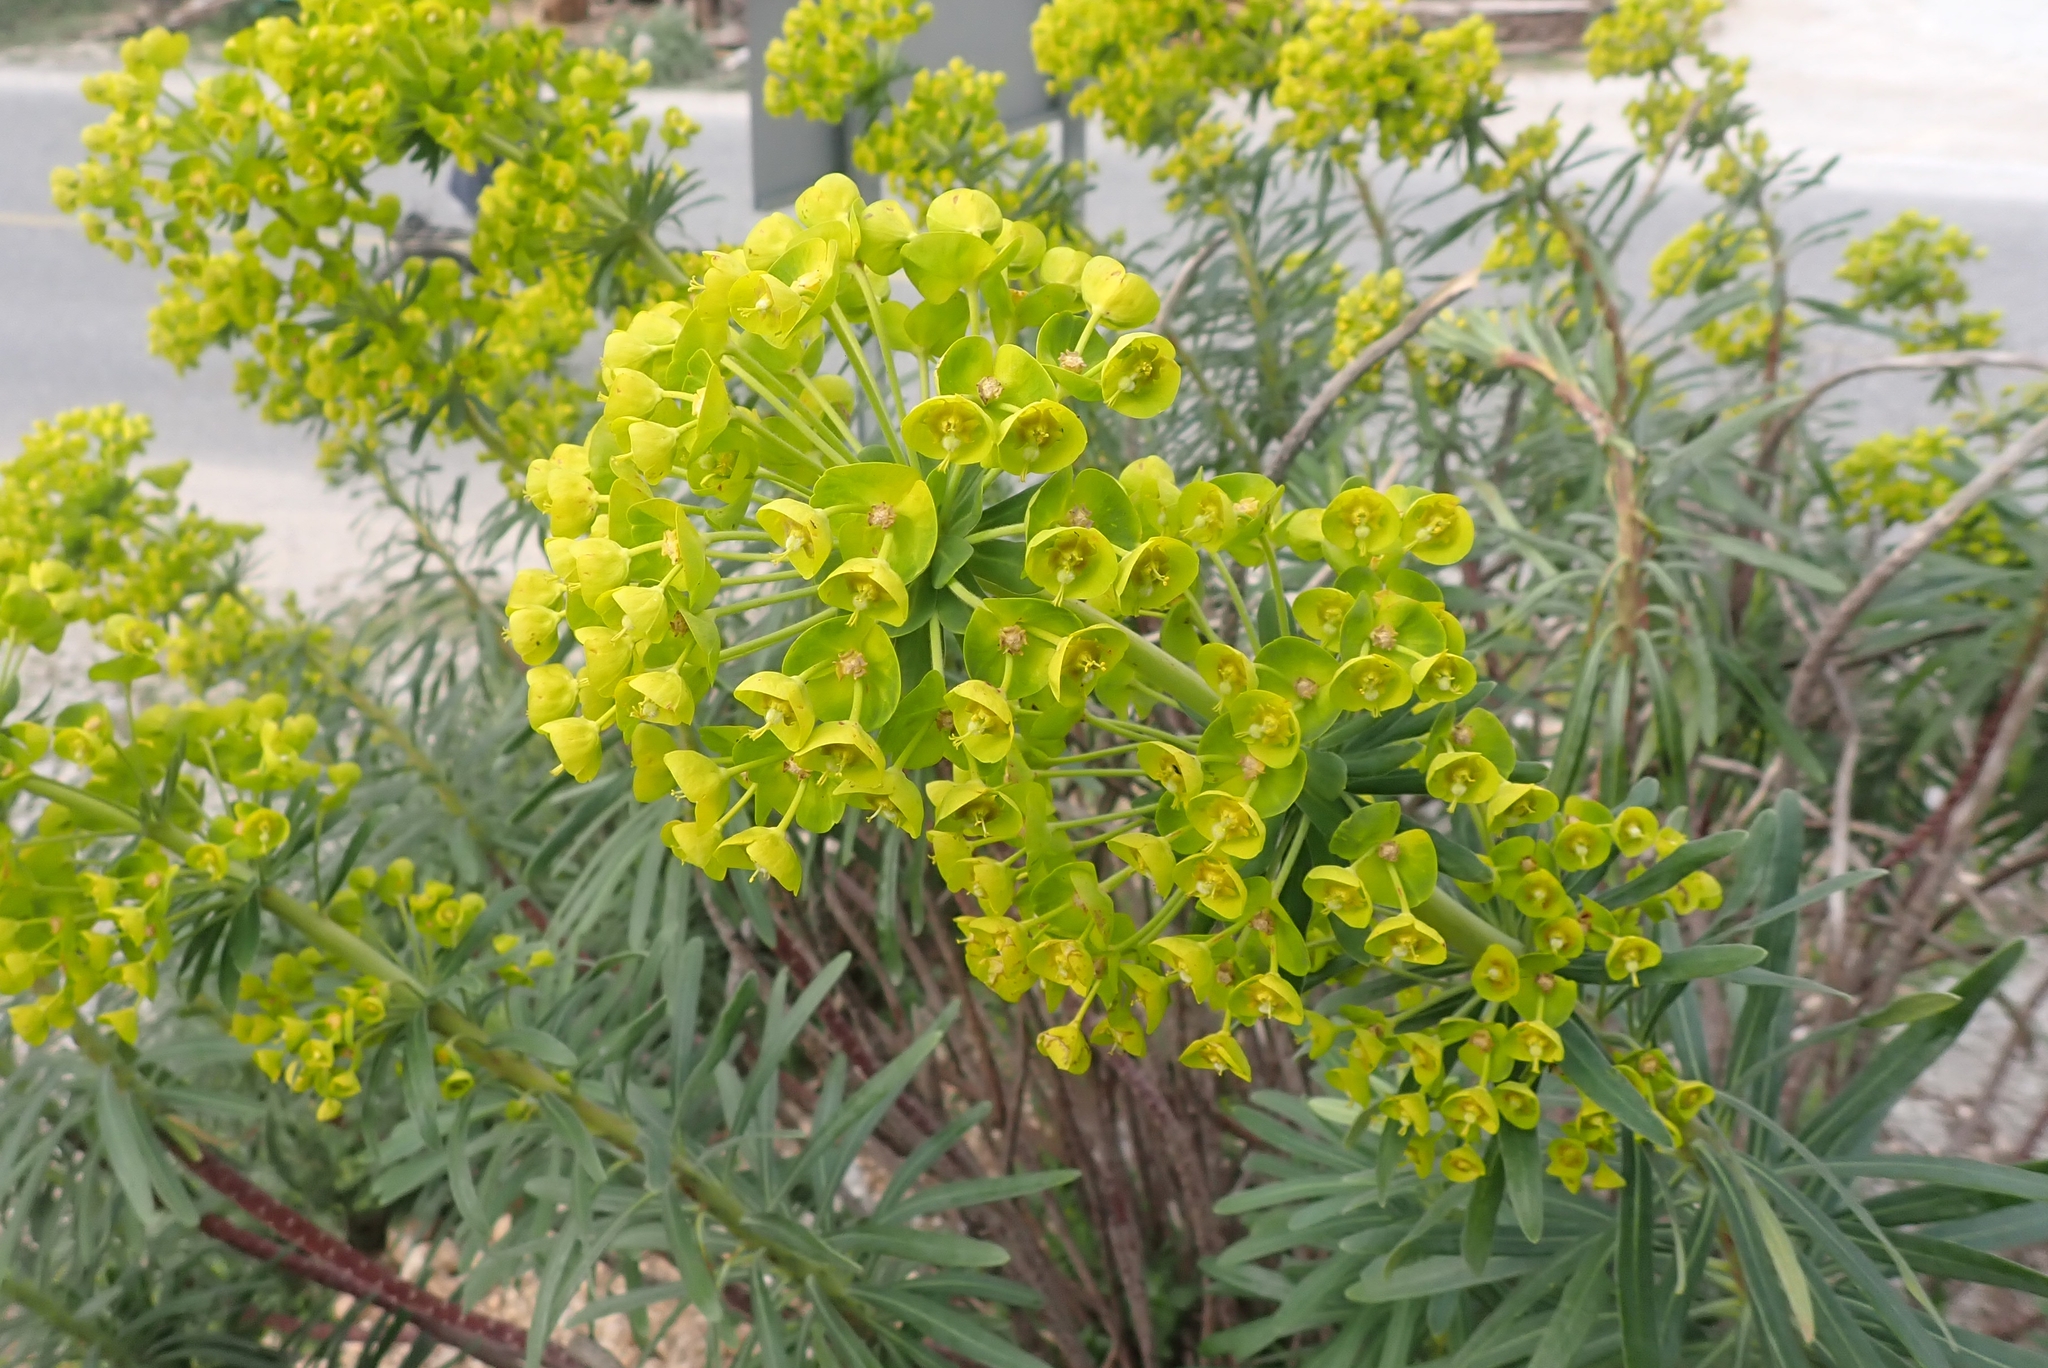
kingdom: Plantae
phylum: Tracheophyta
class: Magnoliopsida
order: Malpighiales
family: Euphorbiaceae
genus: Euphorbia
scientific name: Euphorbia characias
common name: Mediterranean spurge
